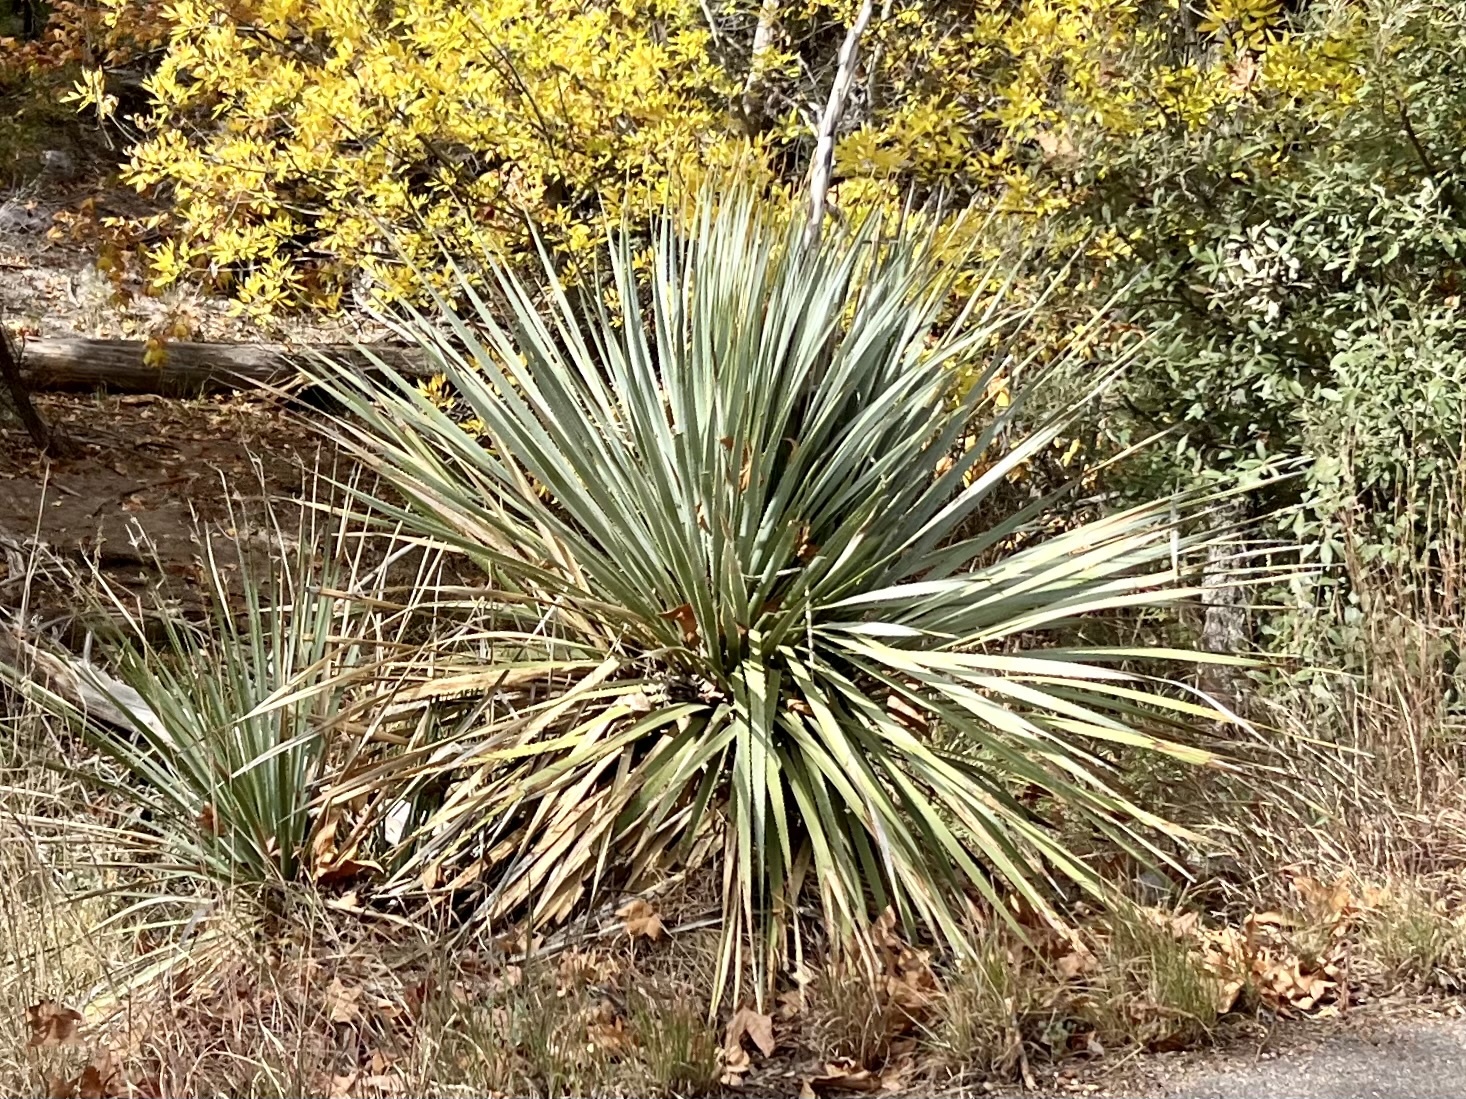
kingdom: Plantae
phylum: Tracheophyta
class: Liliopsida
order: Asparagales
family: Asparagaceae
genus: Dasylirion
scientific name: Dasylirion wheeleri
